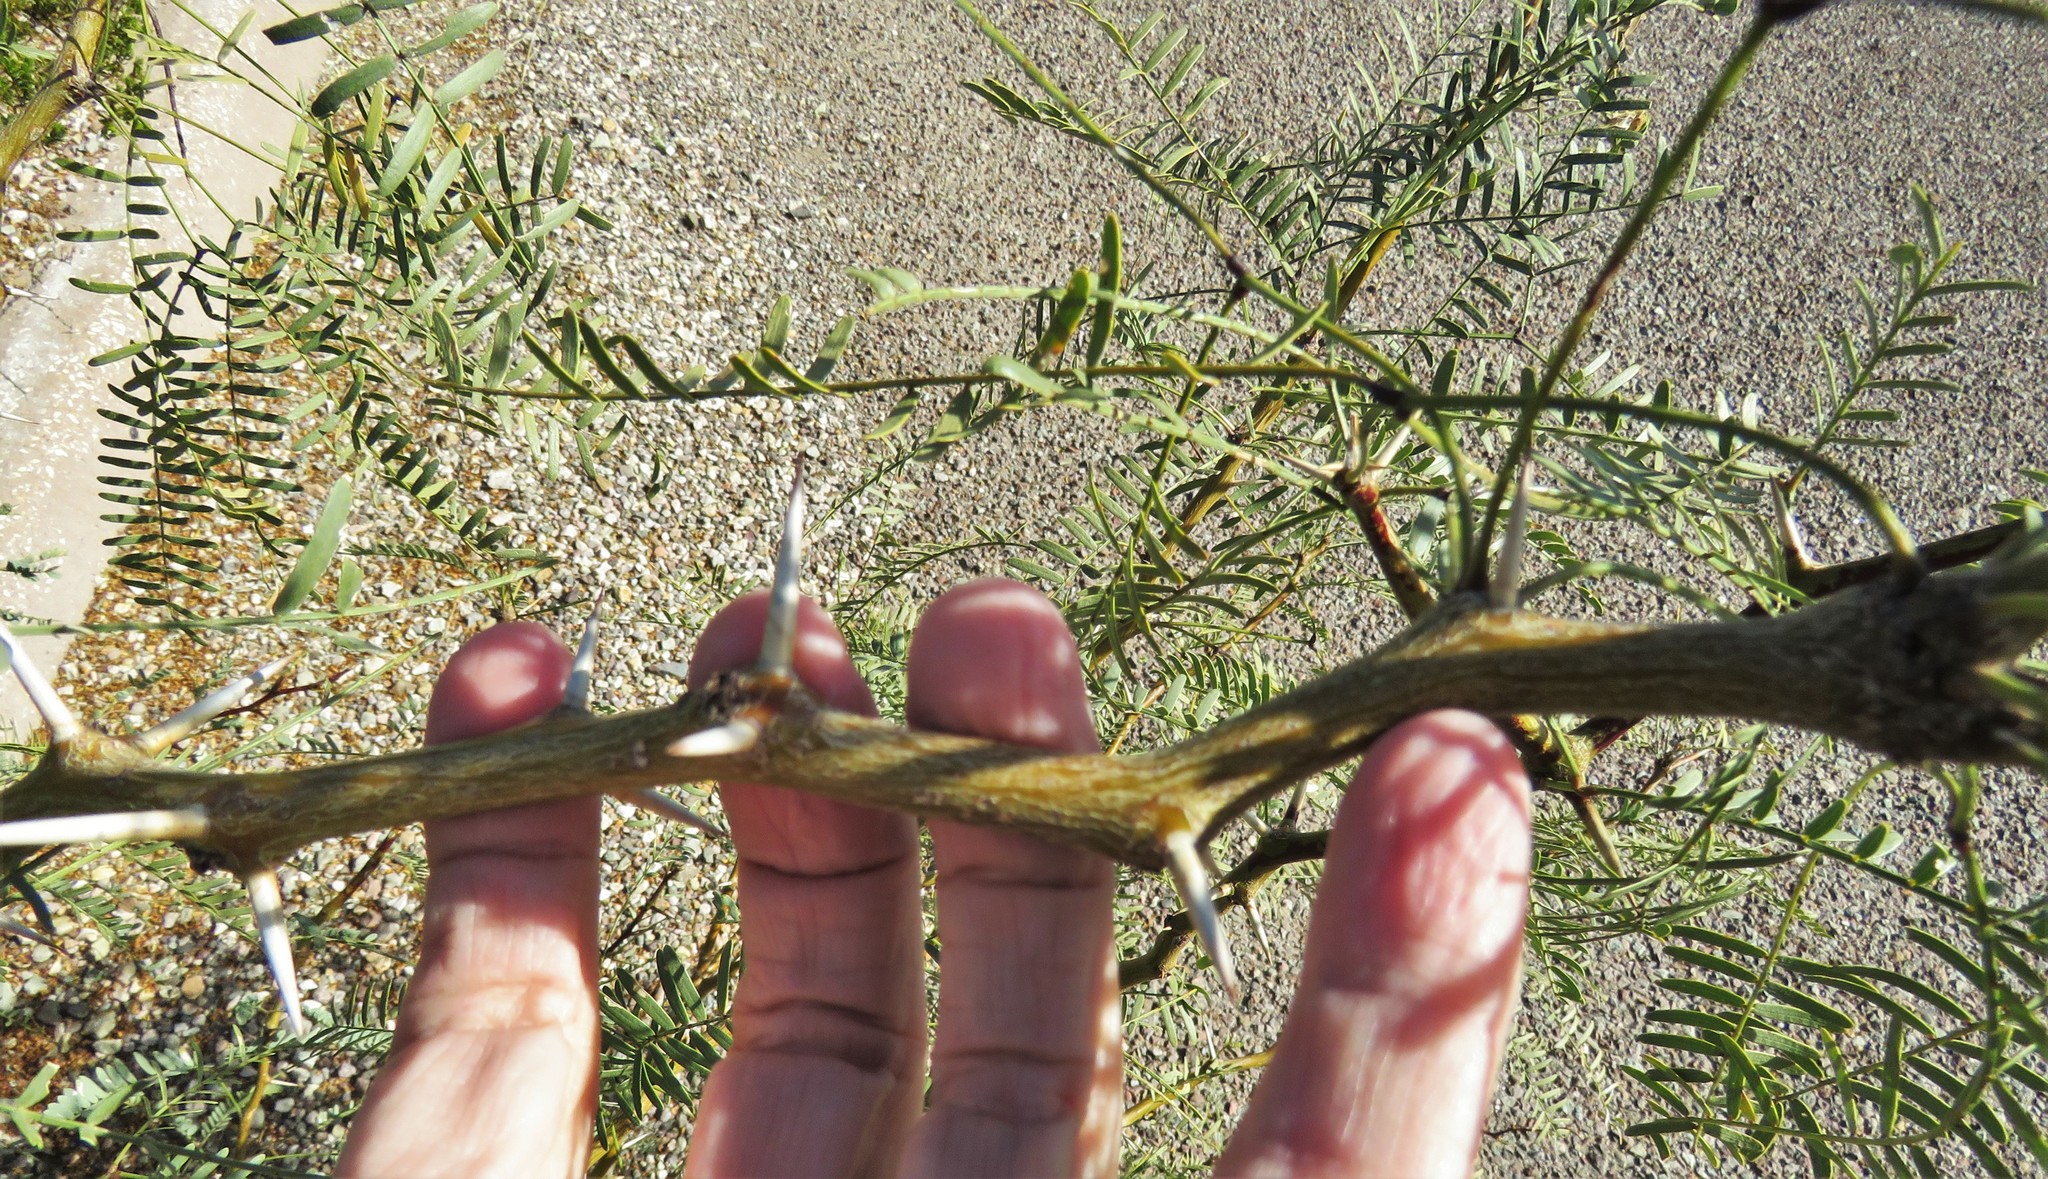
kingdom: Plantae
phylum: Tracheophyta
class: Magnoliopsida
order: Fabales
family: Fabaceae
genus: Prosopis
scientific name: Prosopis pubescens
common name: Screw-bean
